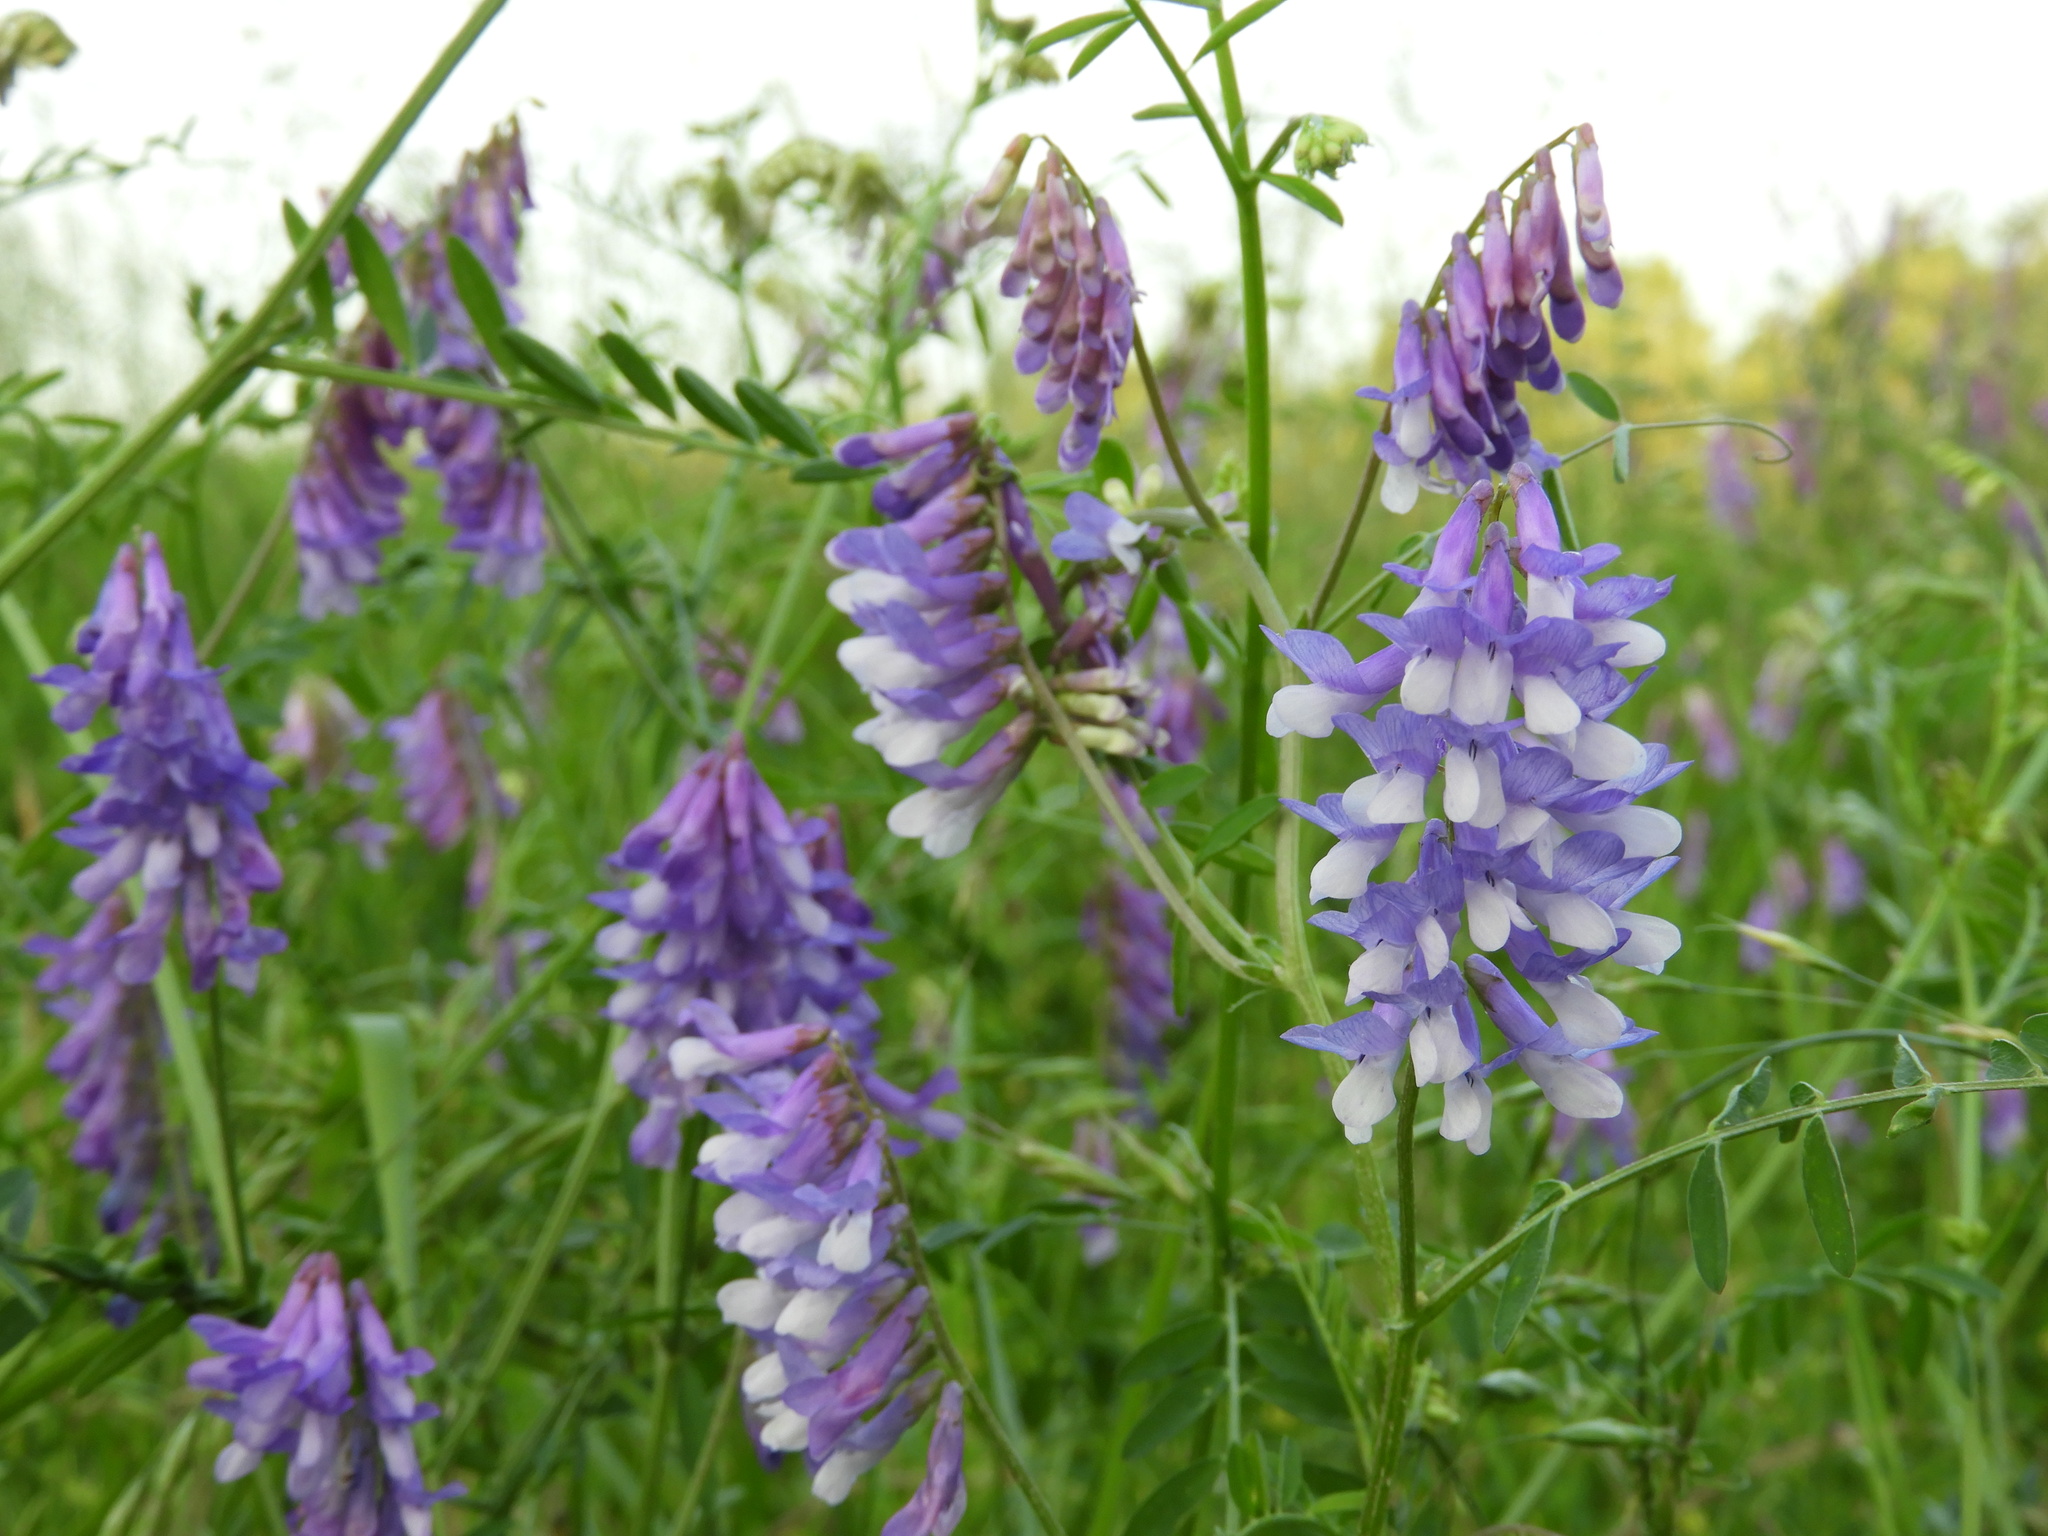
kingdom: Plantae
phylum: Tracheophyta
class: Magnoliopsida
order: Fabales
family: Fabaceae
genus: Vicia
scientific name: Vicia villosa
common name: Fodder vetch
